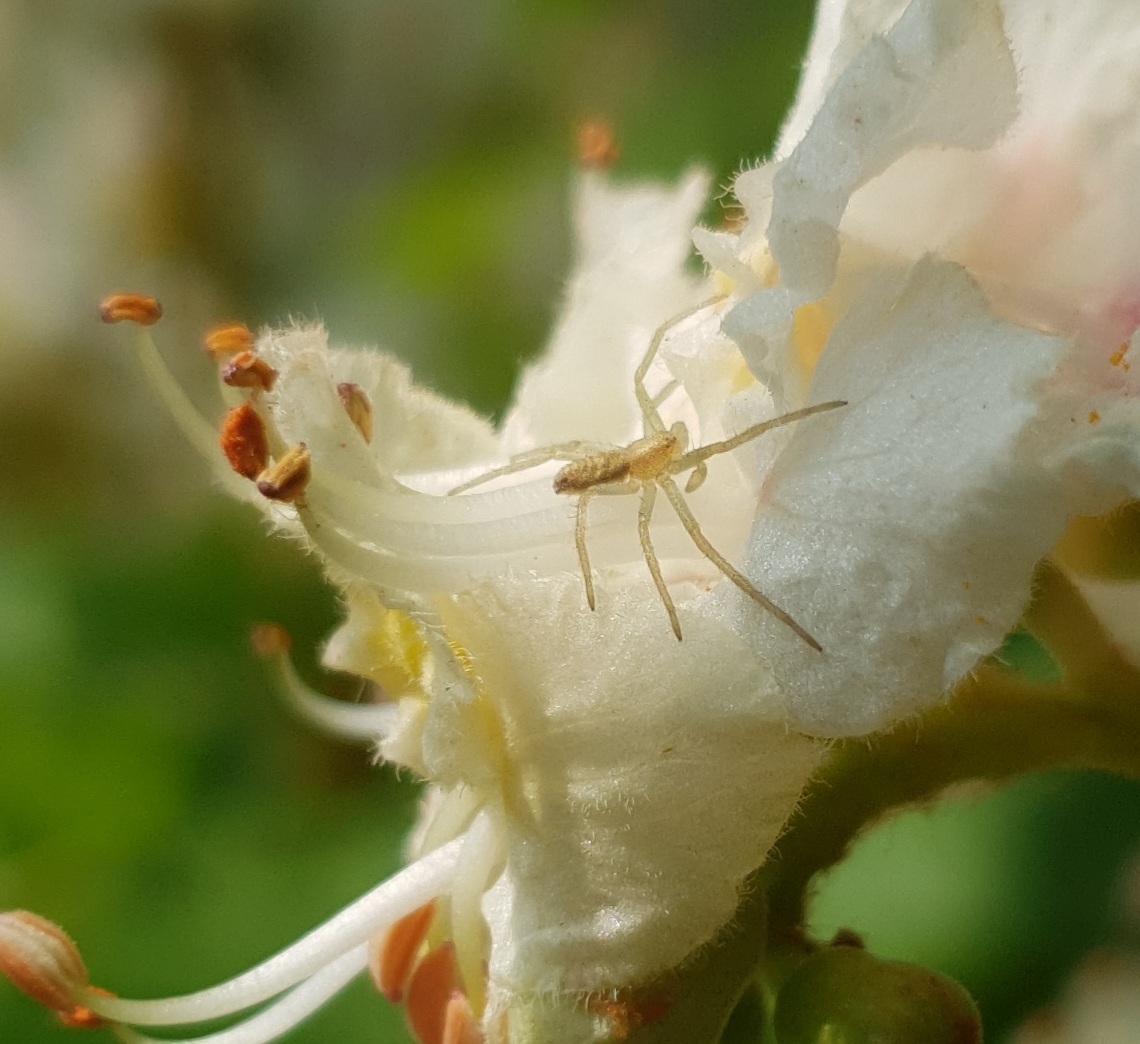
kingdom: Animalia
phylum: Arthropoda
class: Arachnida
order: Araneae
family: Philodromidae
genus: Philodromus
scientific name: Philodromus
